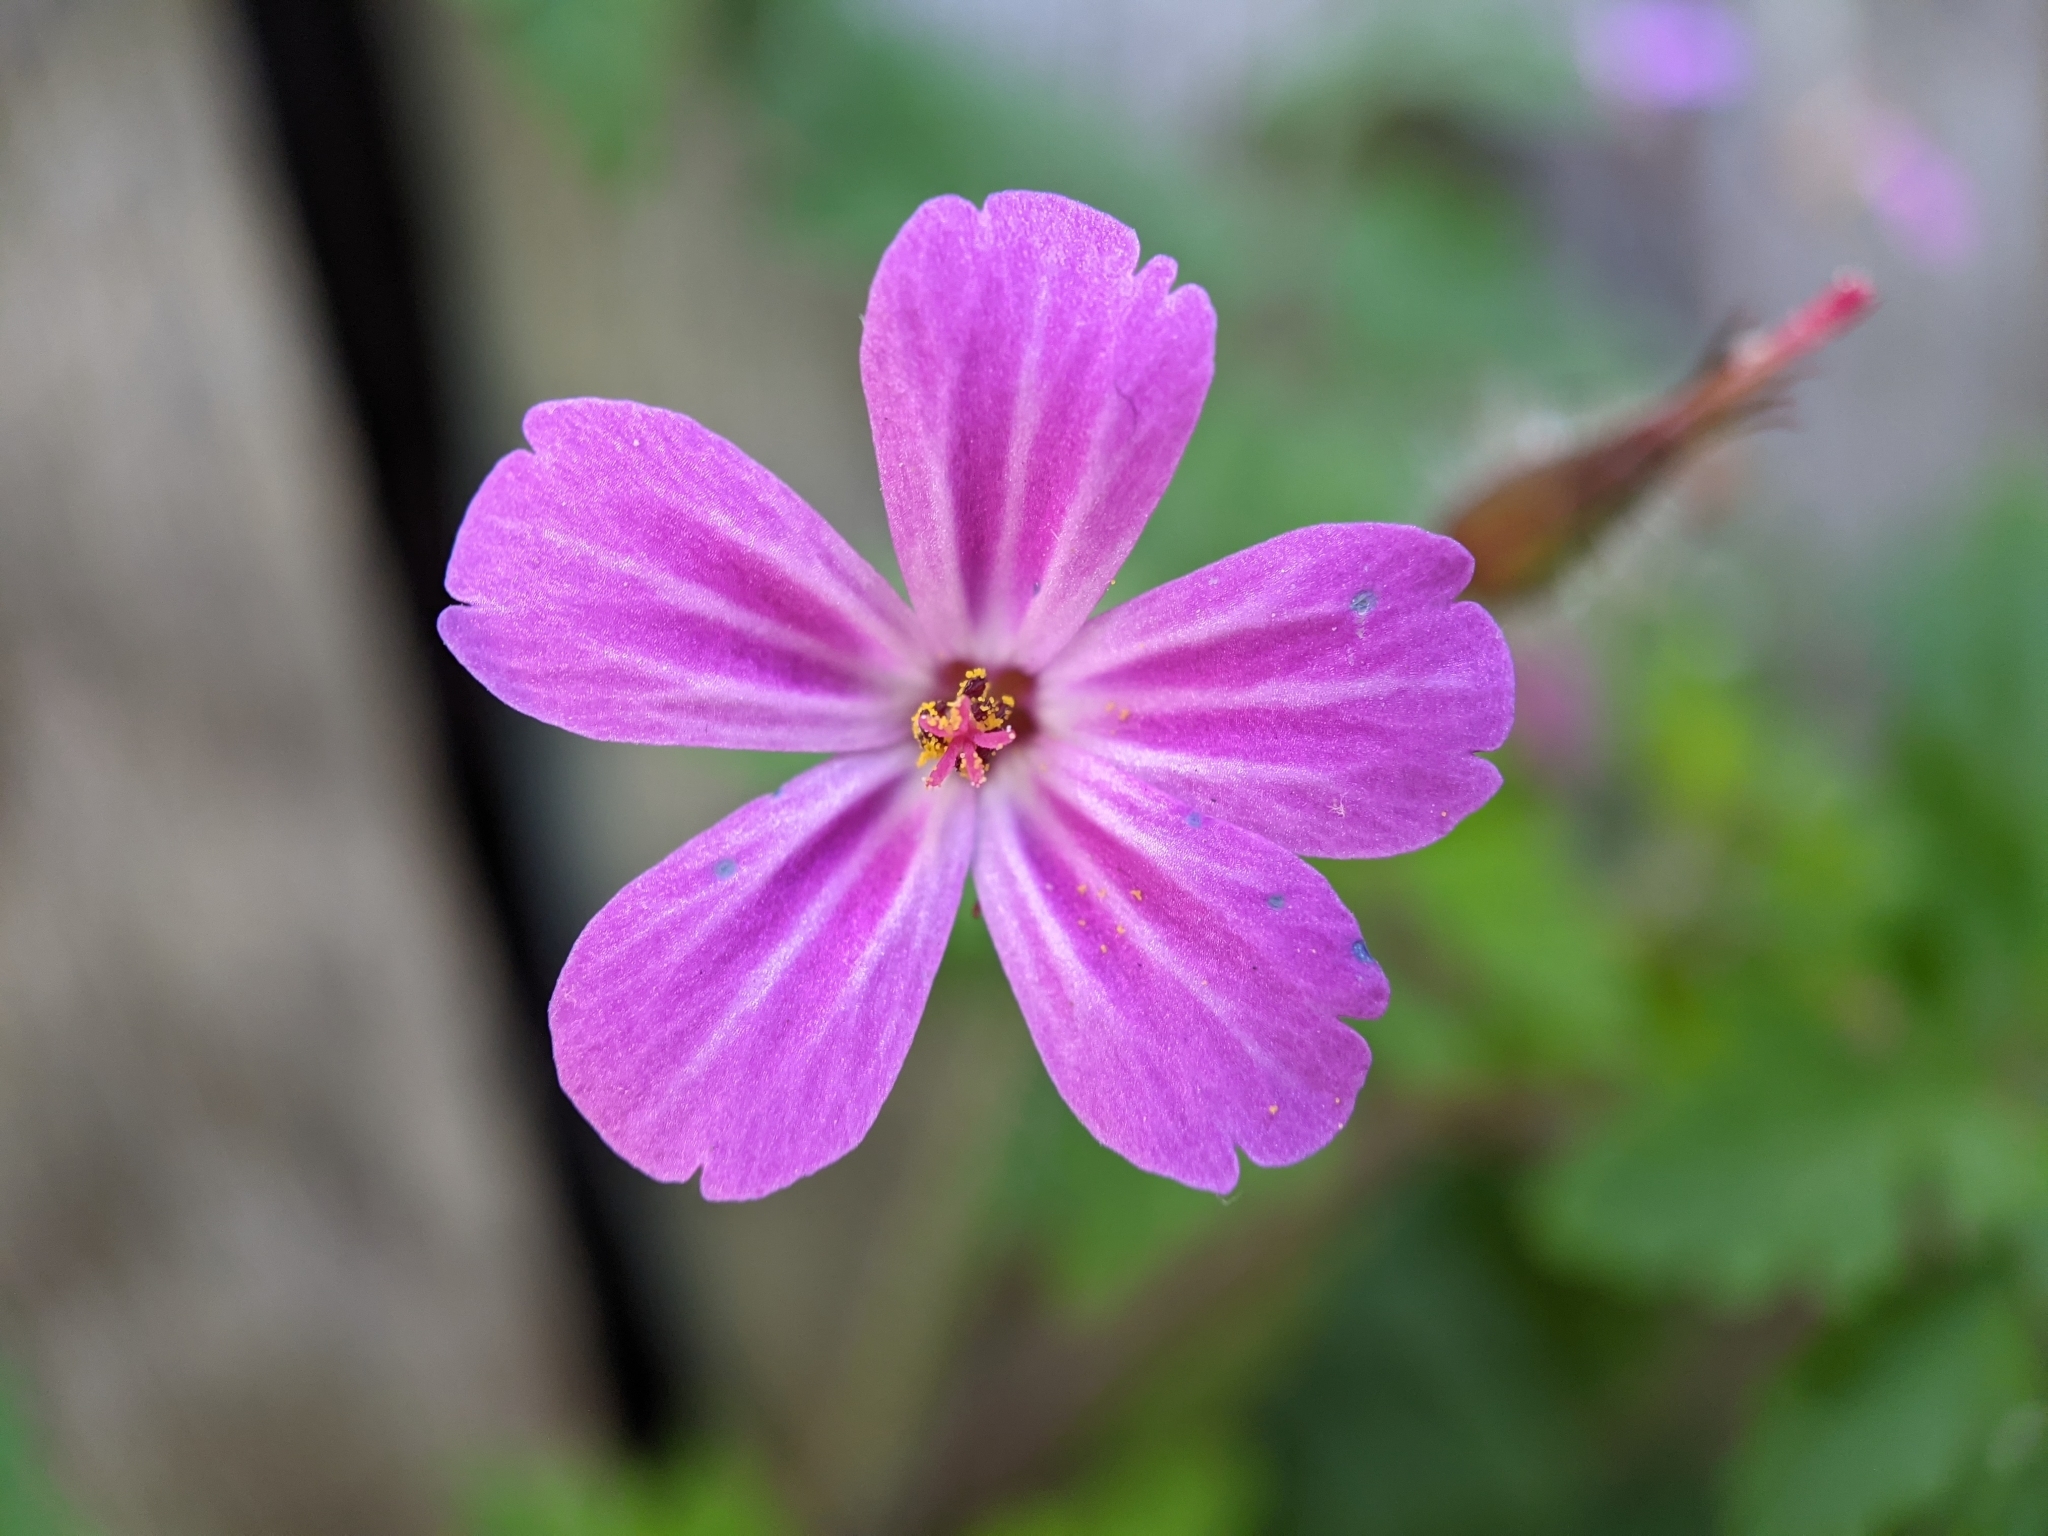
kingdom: Plantae
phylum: Tracheophyta
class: Magnoliopsida
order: Geraniales
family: Geraniaceae
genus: Geranium
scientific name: Geranium robertianum
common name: Herb-robert
